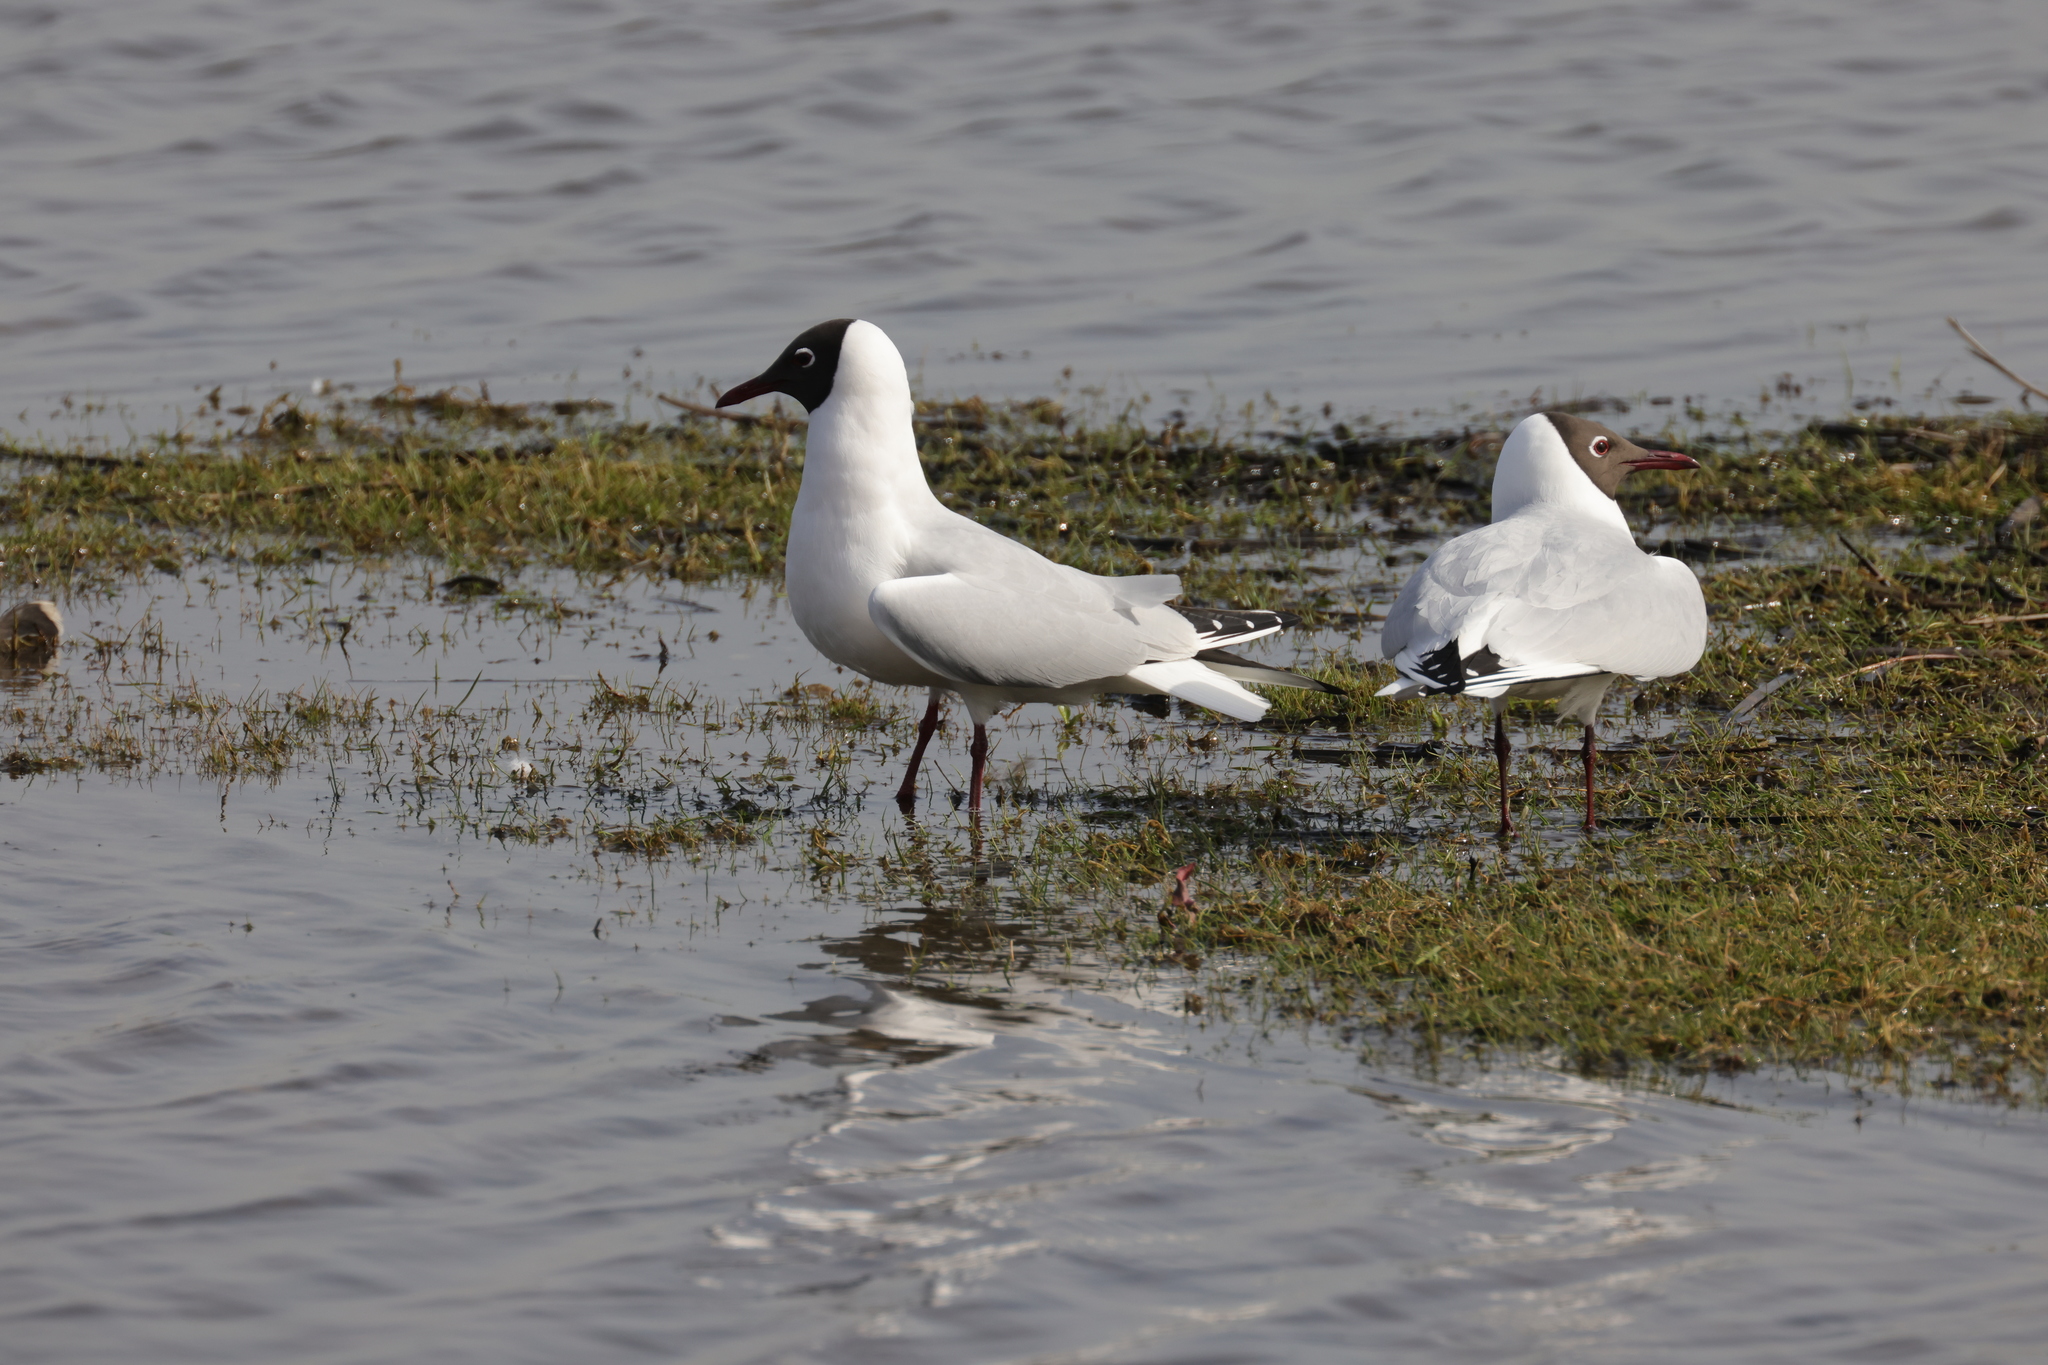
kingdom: Animalia
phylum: Chordata
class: Aves
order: Charadriiformes
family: Laridae
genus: Chroicocephalus
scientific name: Chroicocephalus ridibundus
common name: Black-headed gull
